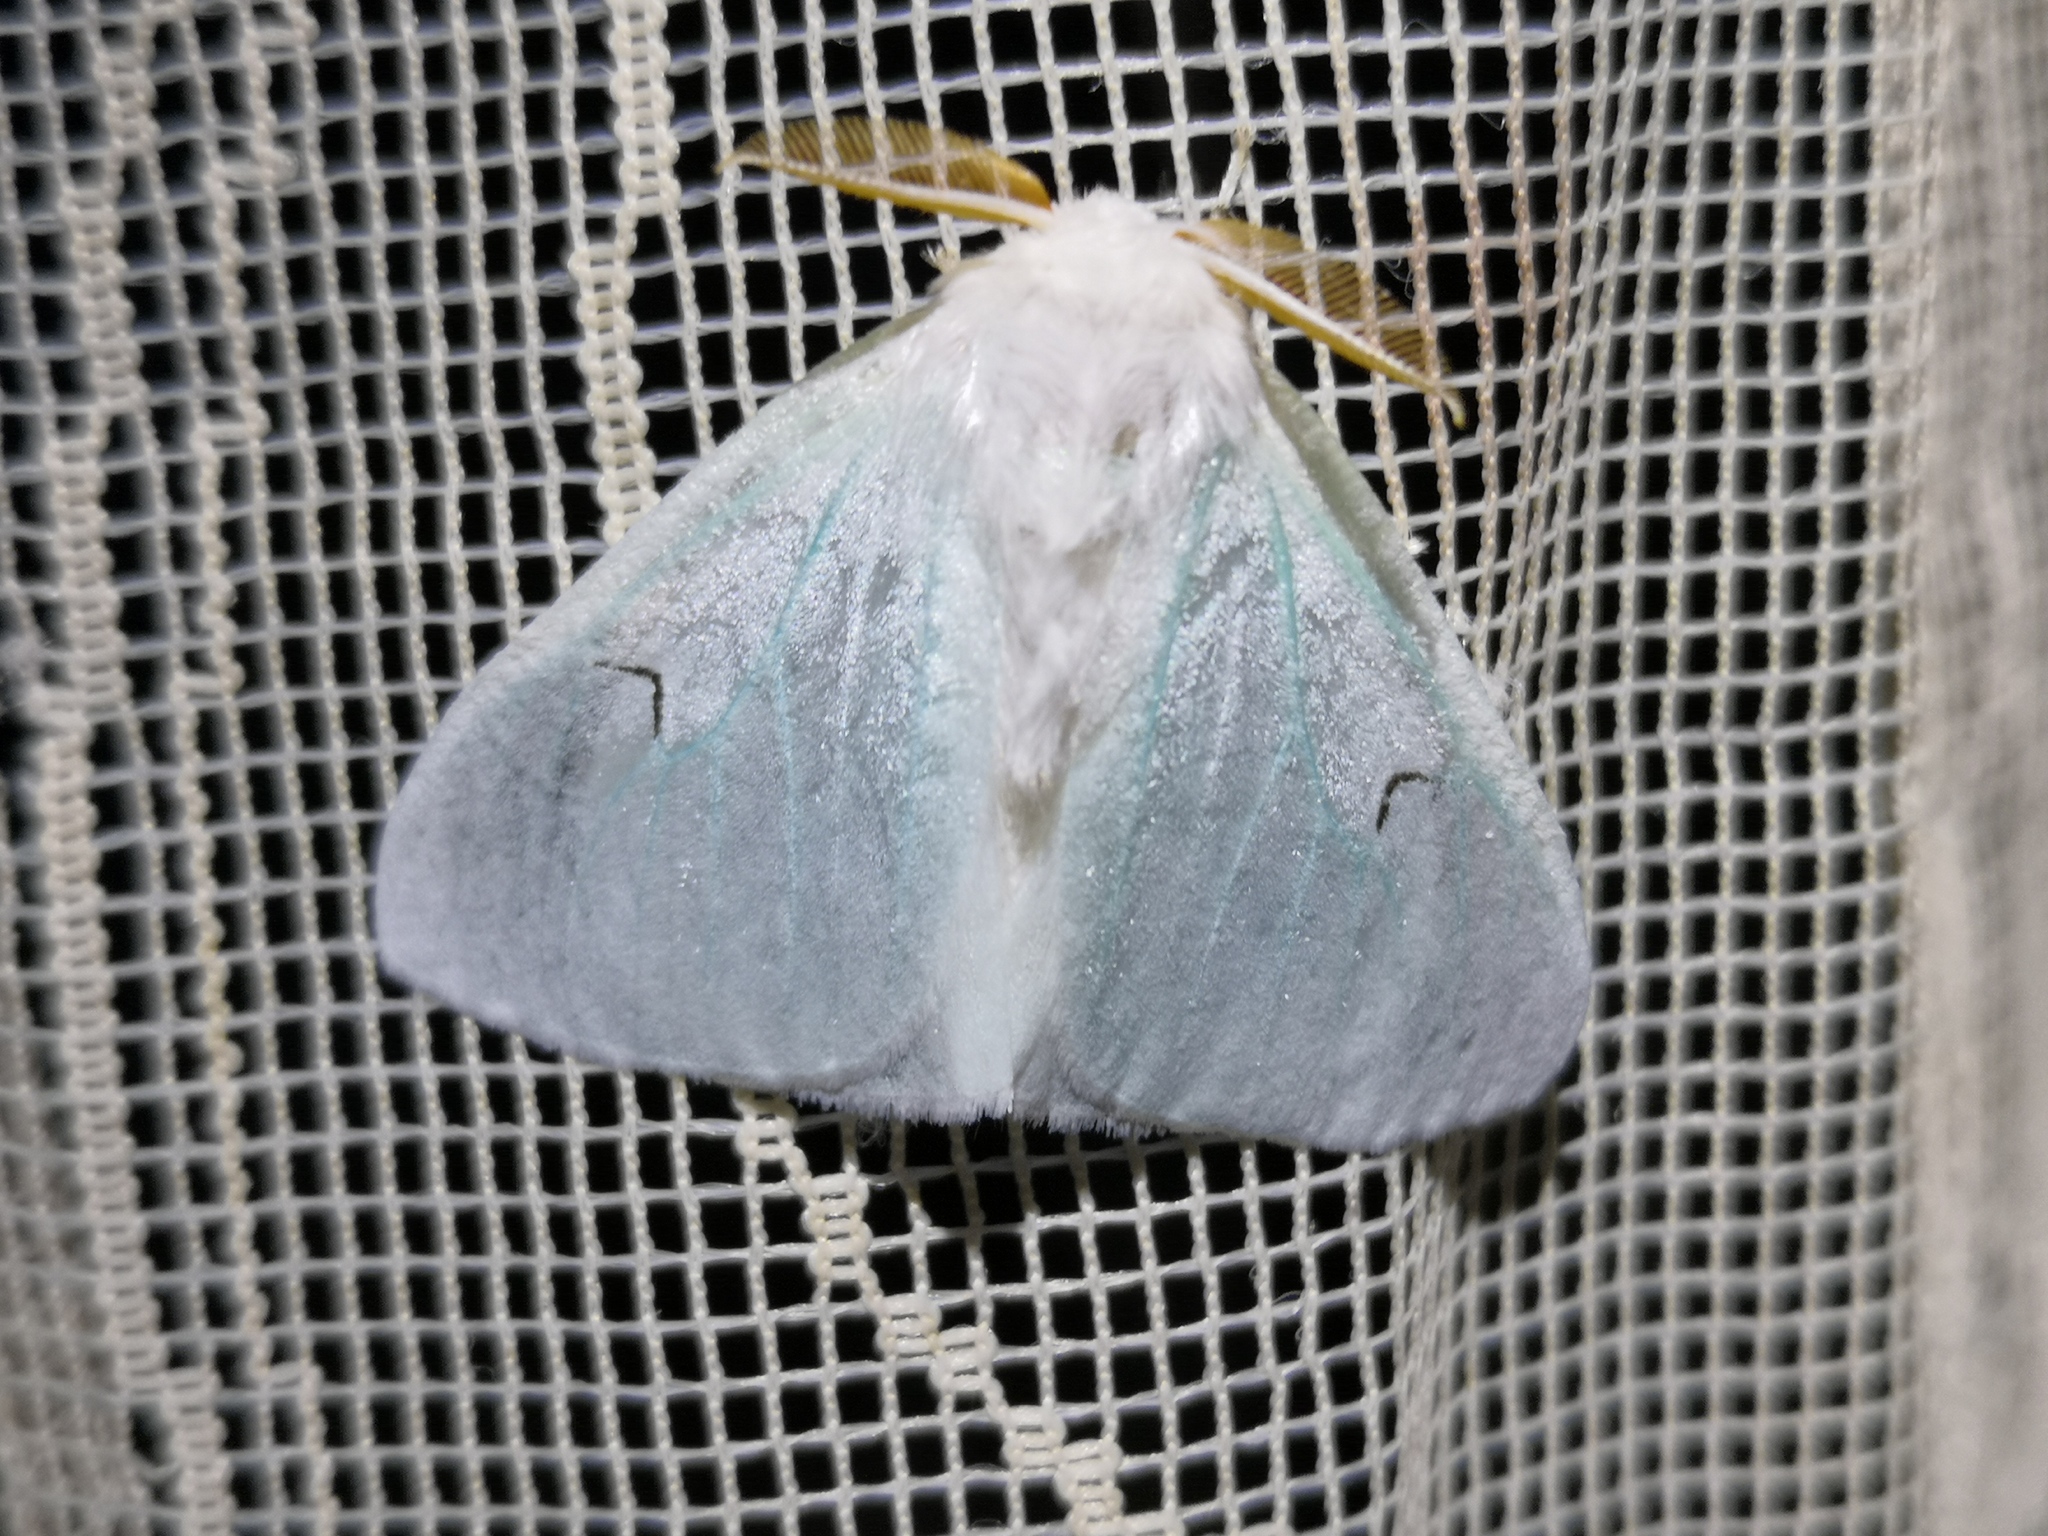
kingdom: Animalia
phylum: Arthropoda
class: Insecta
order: Lepidoptera
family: Erebidae
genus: Arctornis
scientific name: Arctornis l-nigrum
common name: Black v moth
